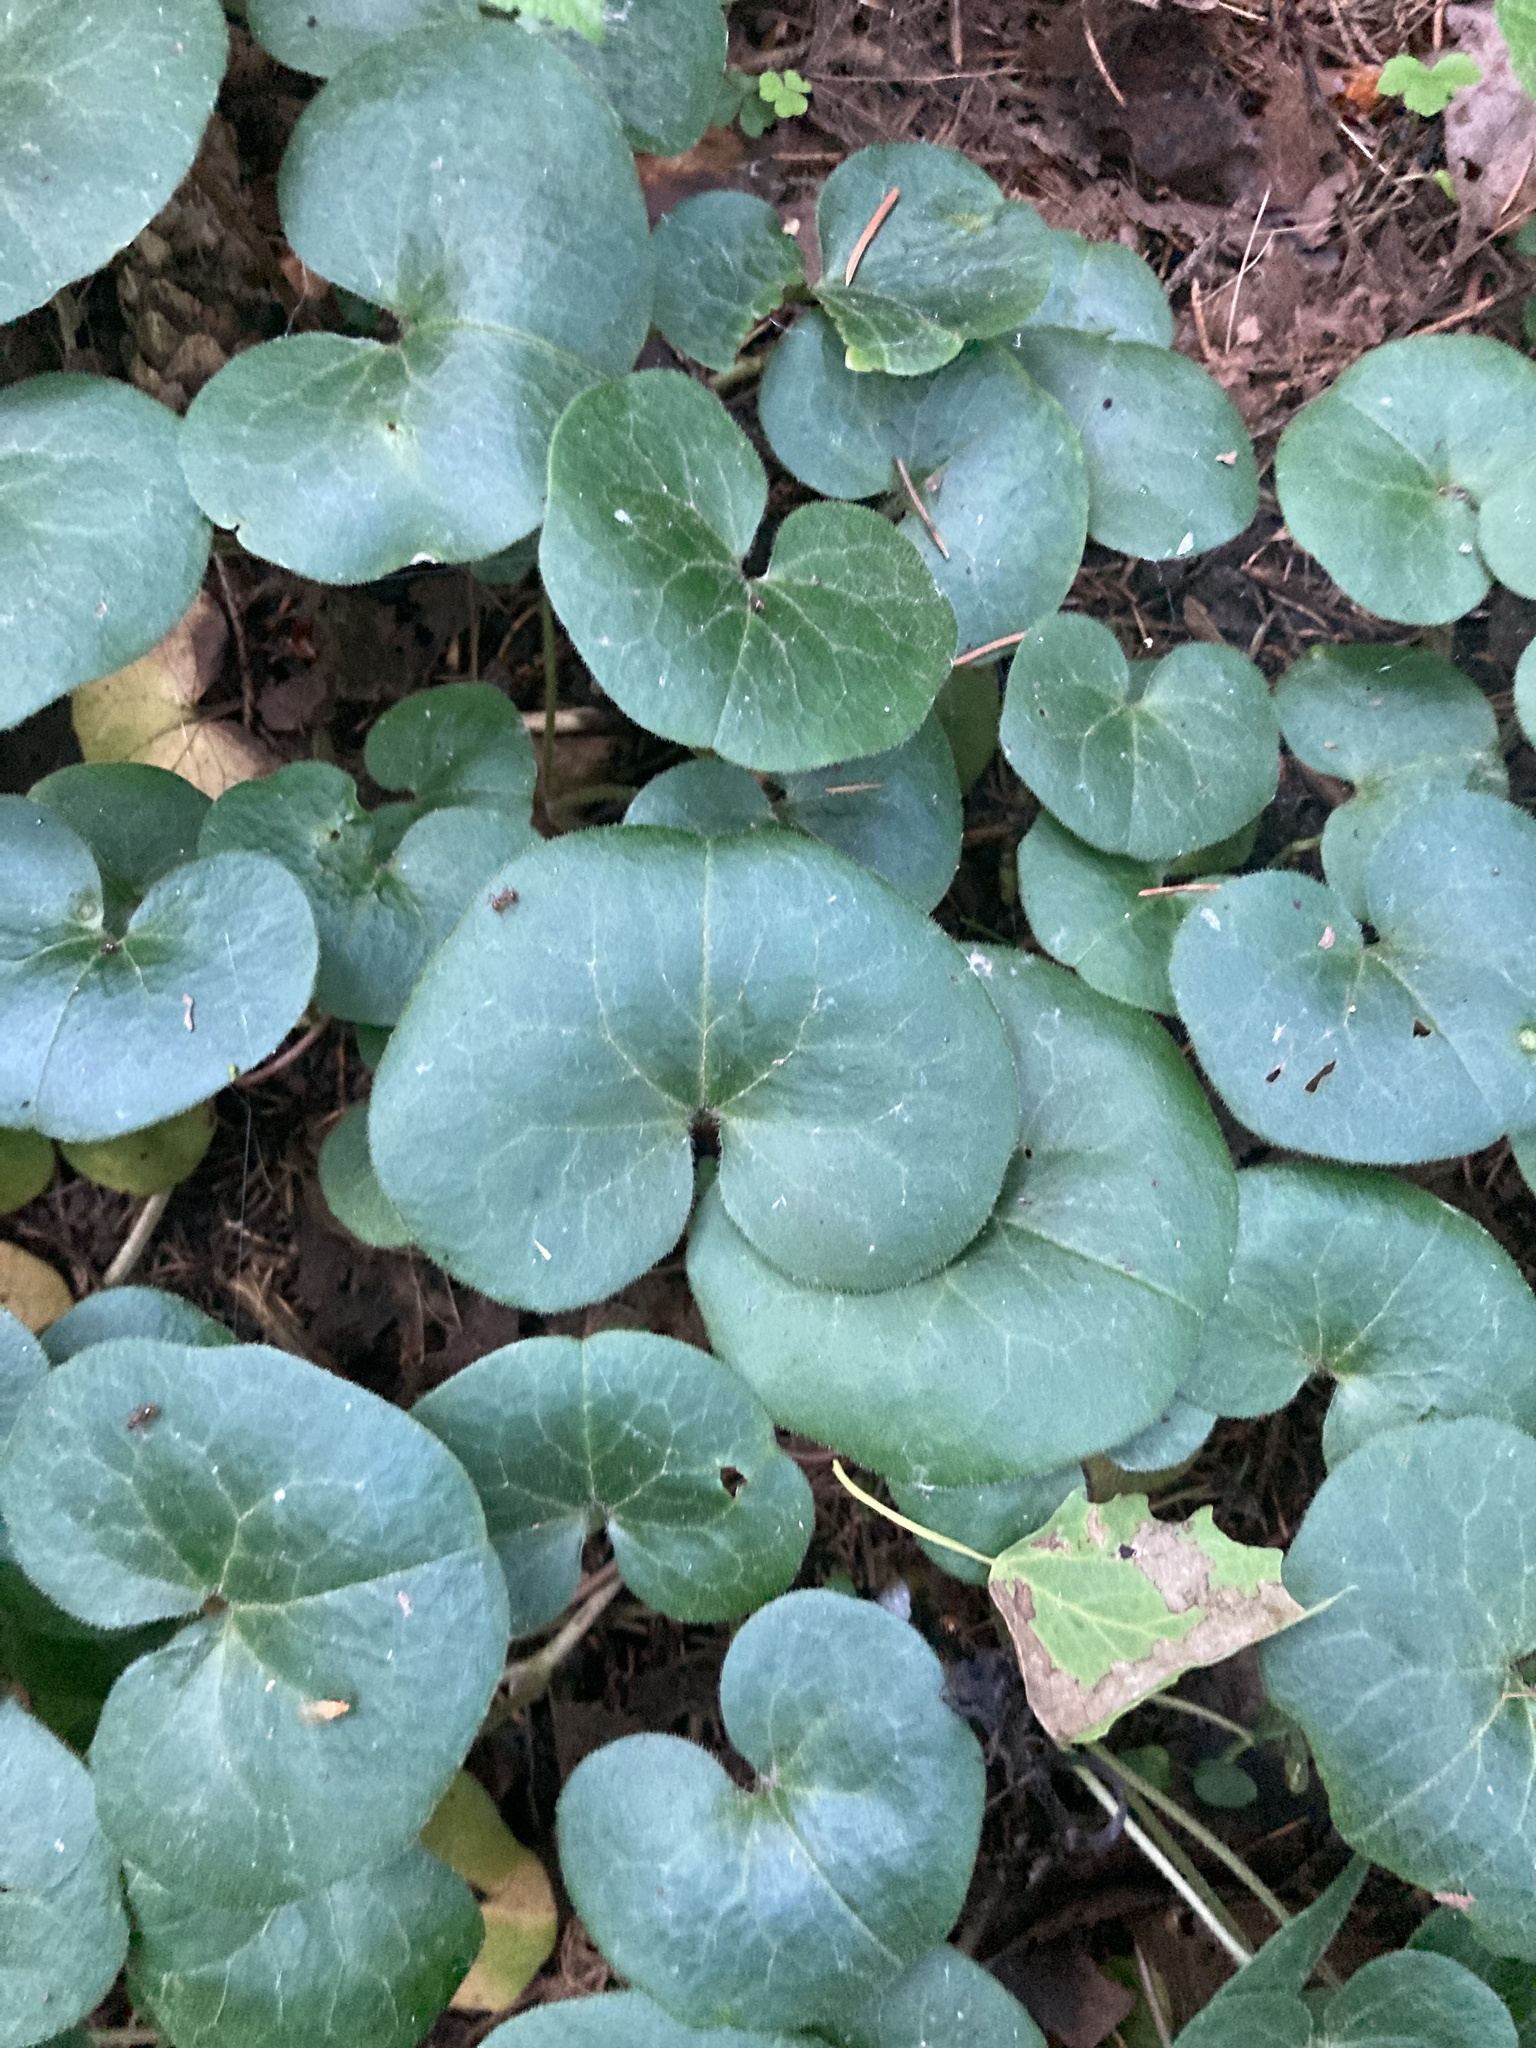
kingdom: Plantae
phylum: Tracheophyta
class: Magnoliopsida
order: Piperales
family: Aristolochiaceae
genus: Asarum
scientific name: Asarum europaeum
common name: Asarabacca
